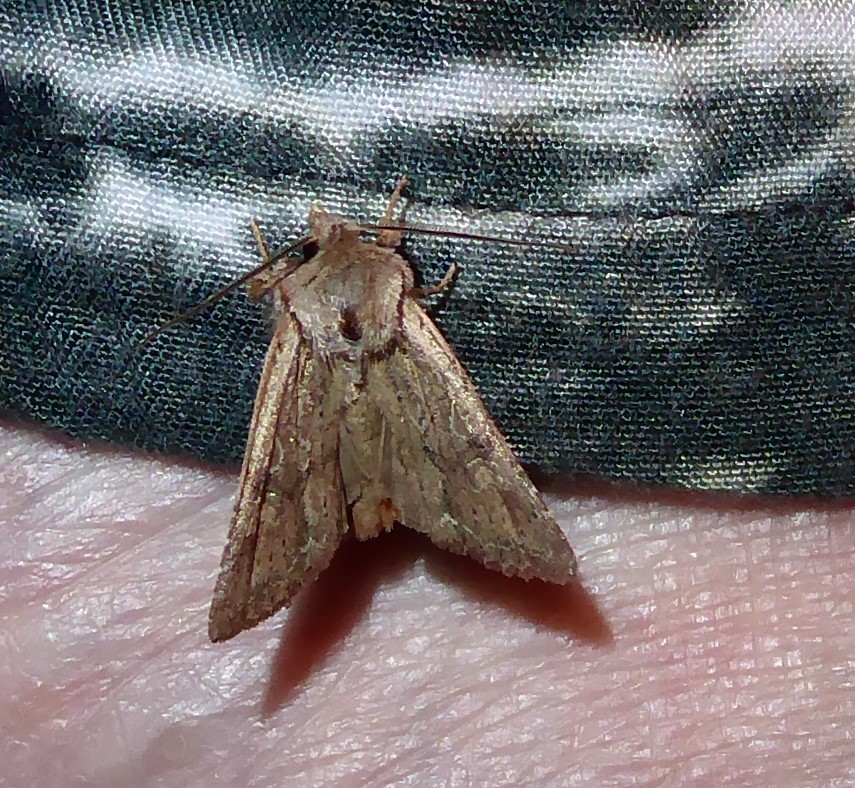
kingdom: Animalia
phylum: Arthropoda
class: Insecta
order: Lepidoptera
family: Noctuidae
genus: Ichneutica
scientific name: Ichneutica
